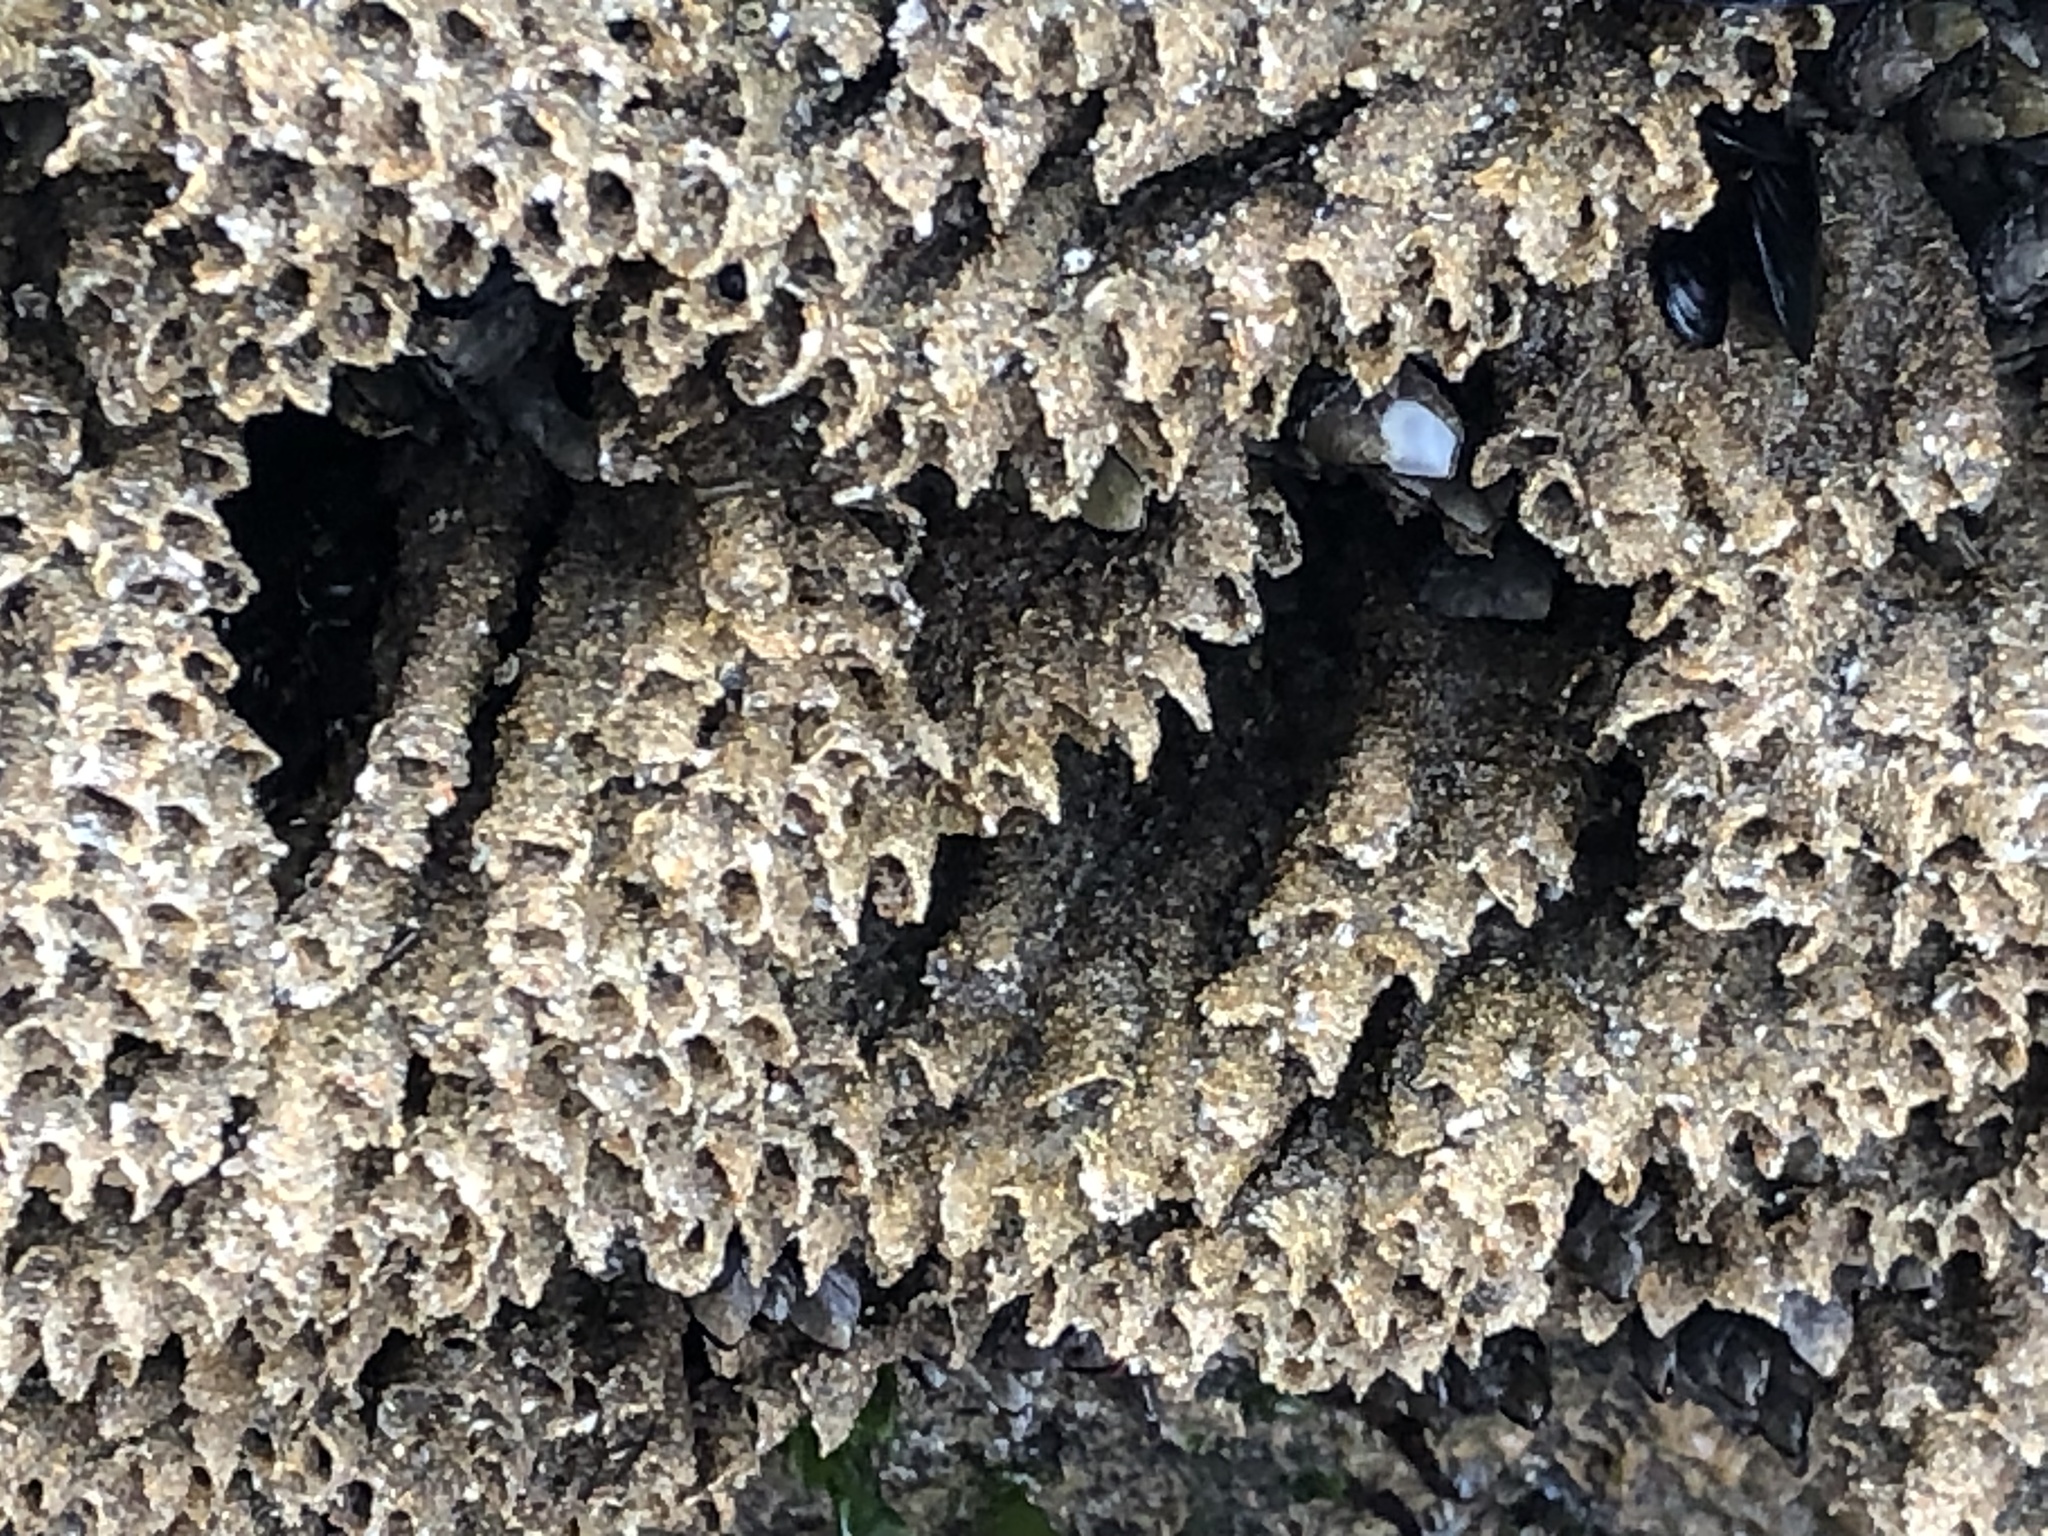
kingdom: Animalia
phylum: Annelida
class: Polychaeta
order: Sabellida
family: Sabellariidae
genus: Phragmatopoma
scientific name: Phragmatopoma californica
